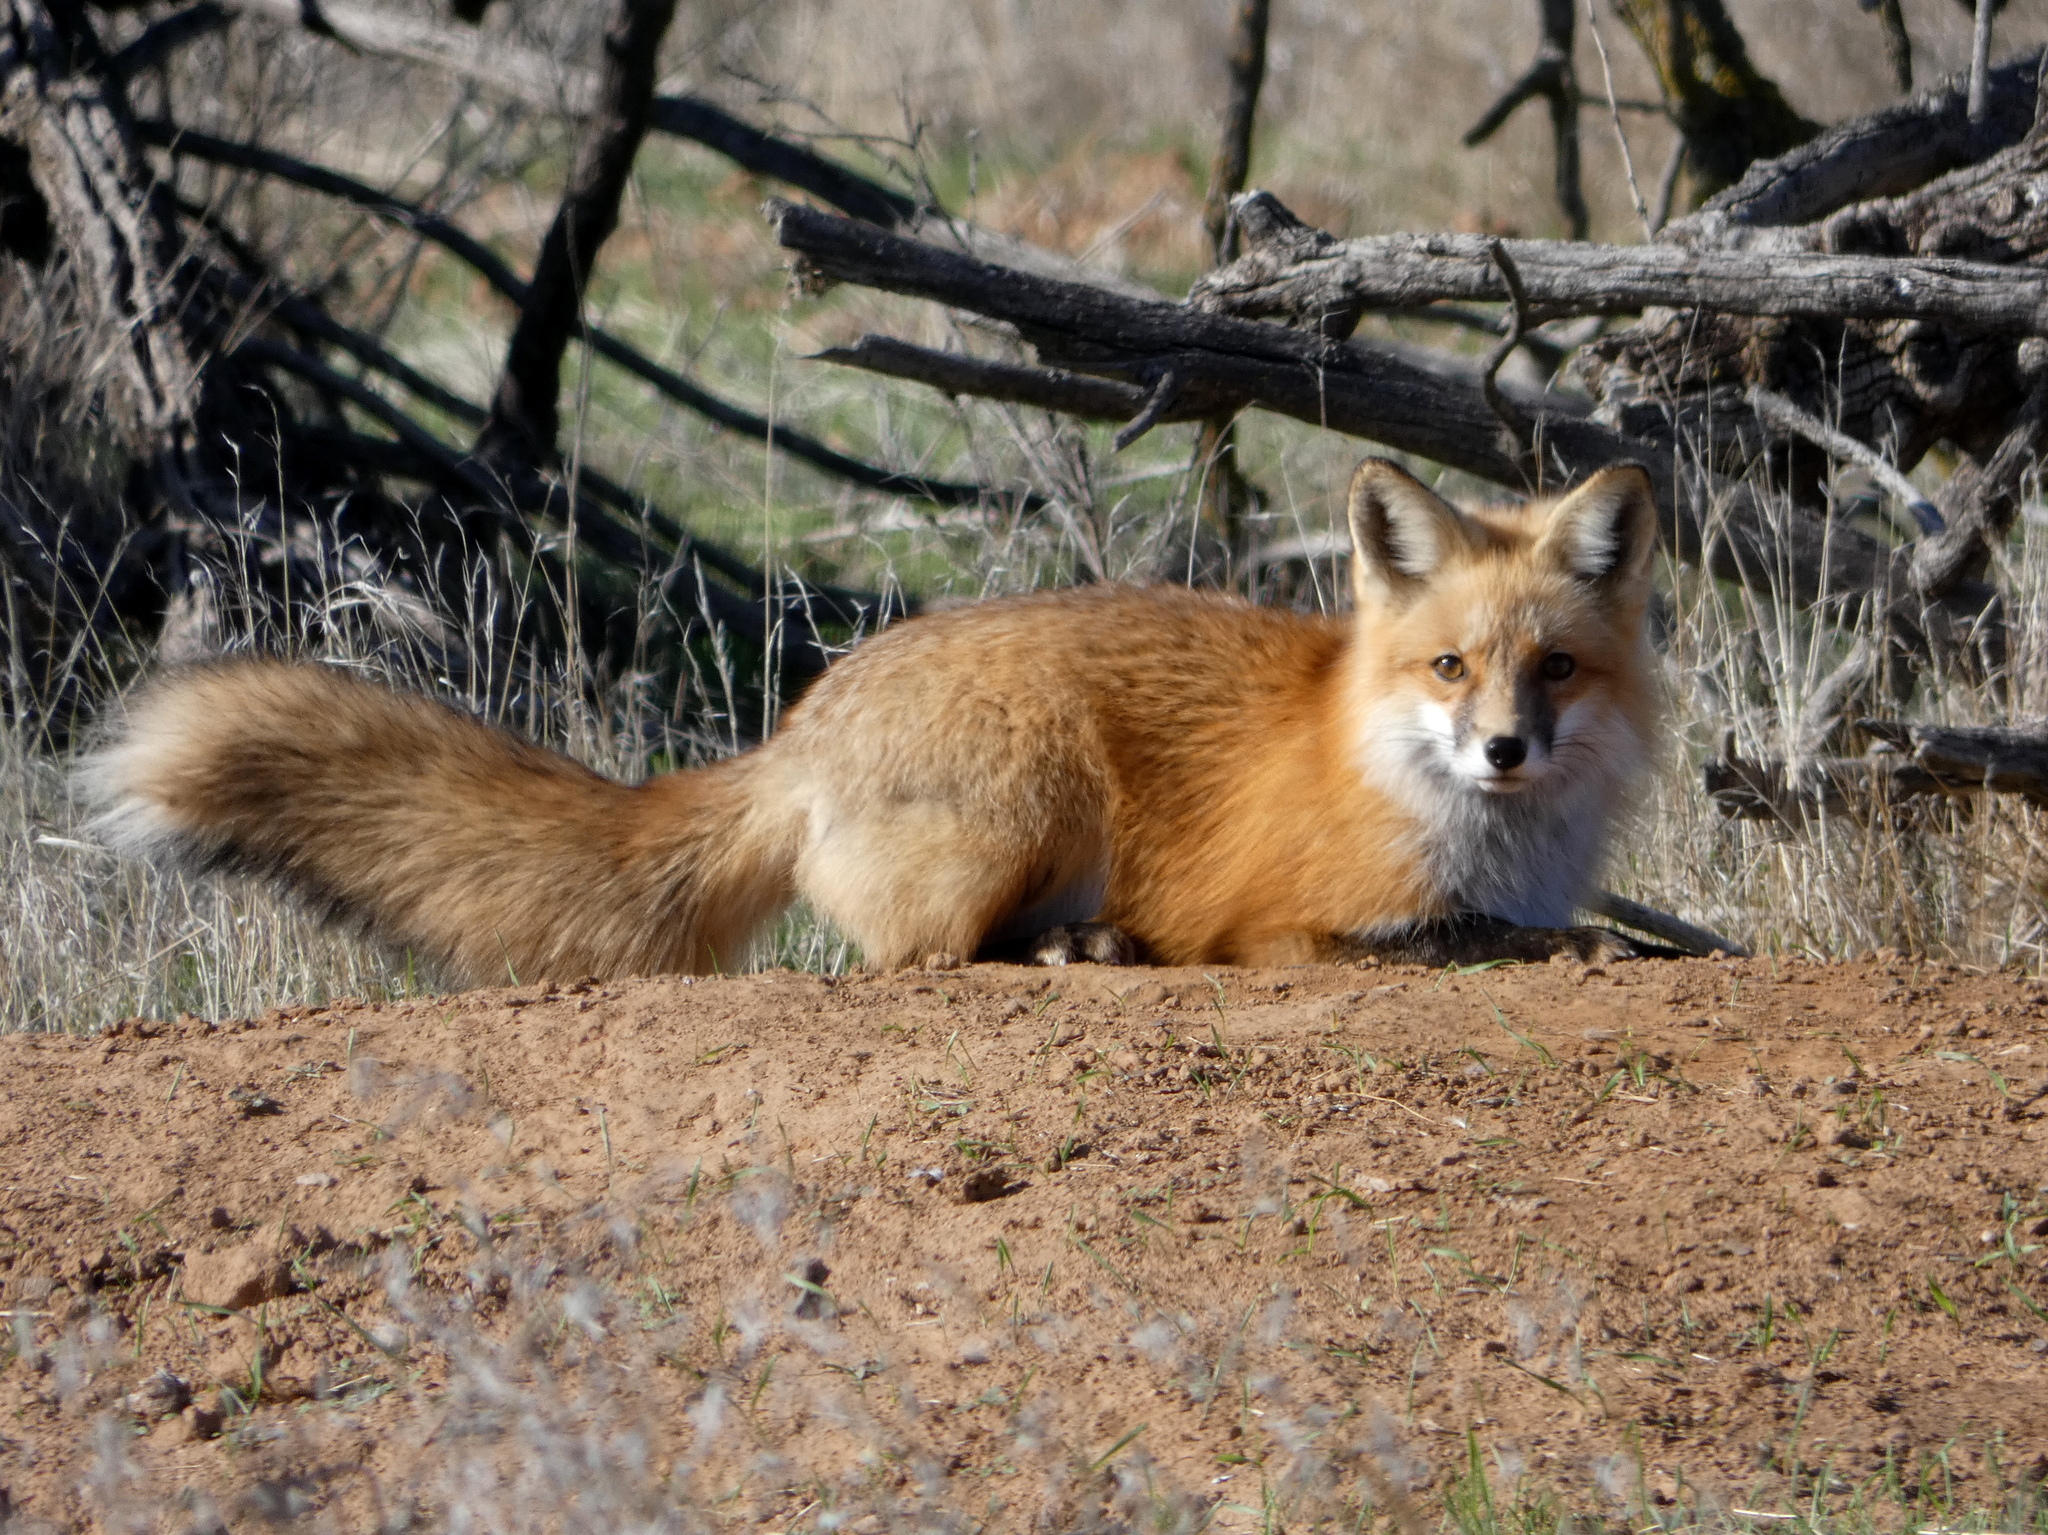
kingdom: Animalia
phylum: Chordata
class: Mammalia
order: Carnivora
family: Canidae
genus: Vulpes
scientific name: Vulpes vulpes
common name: Red fox
